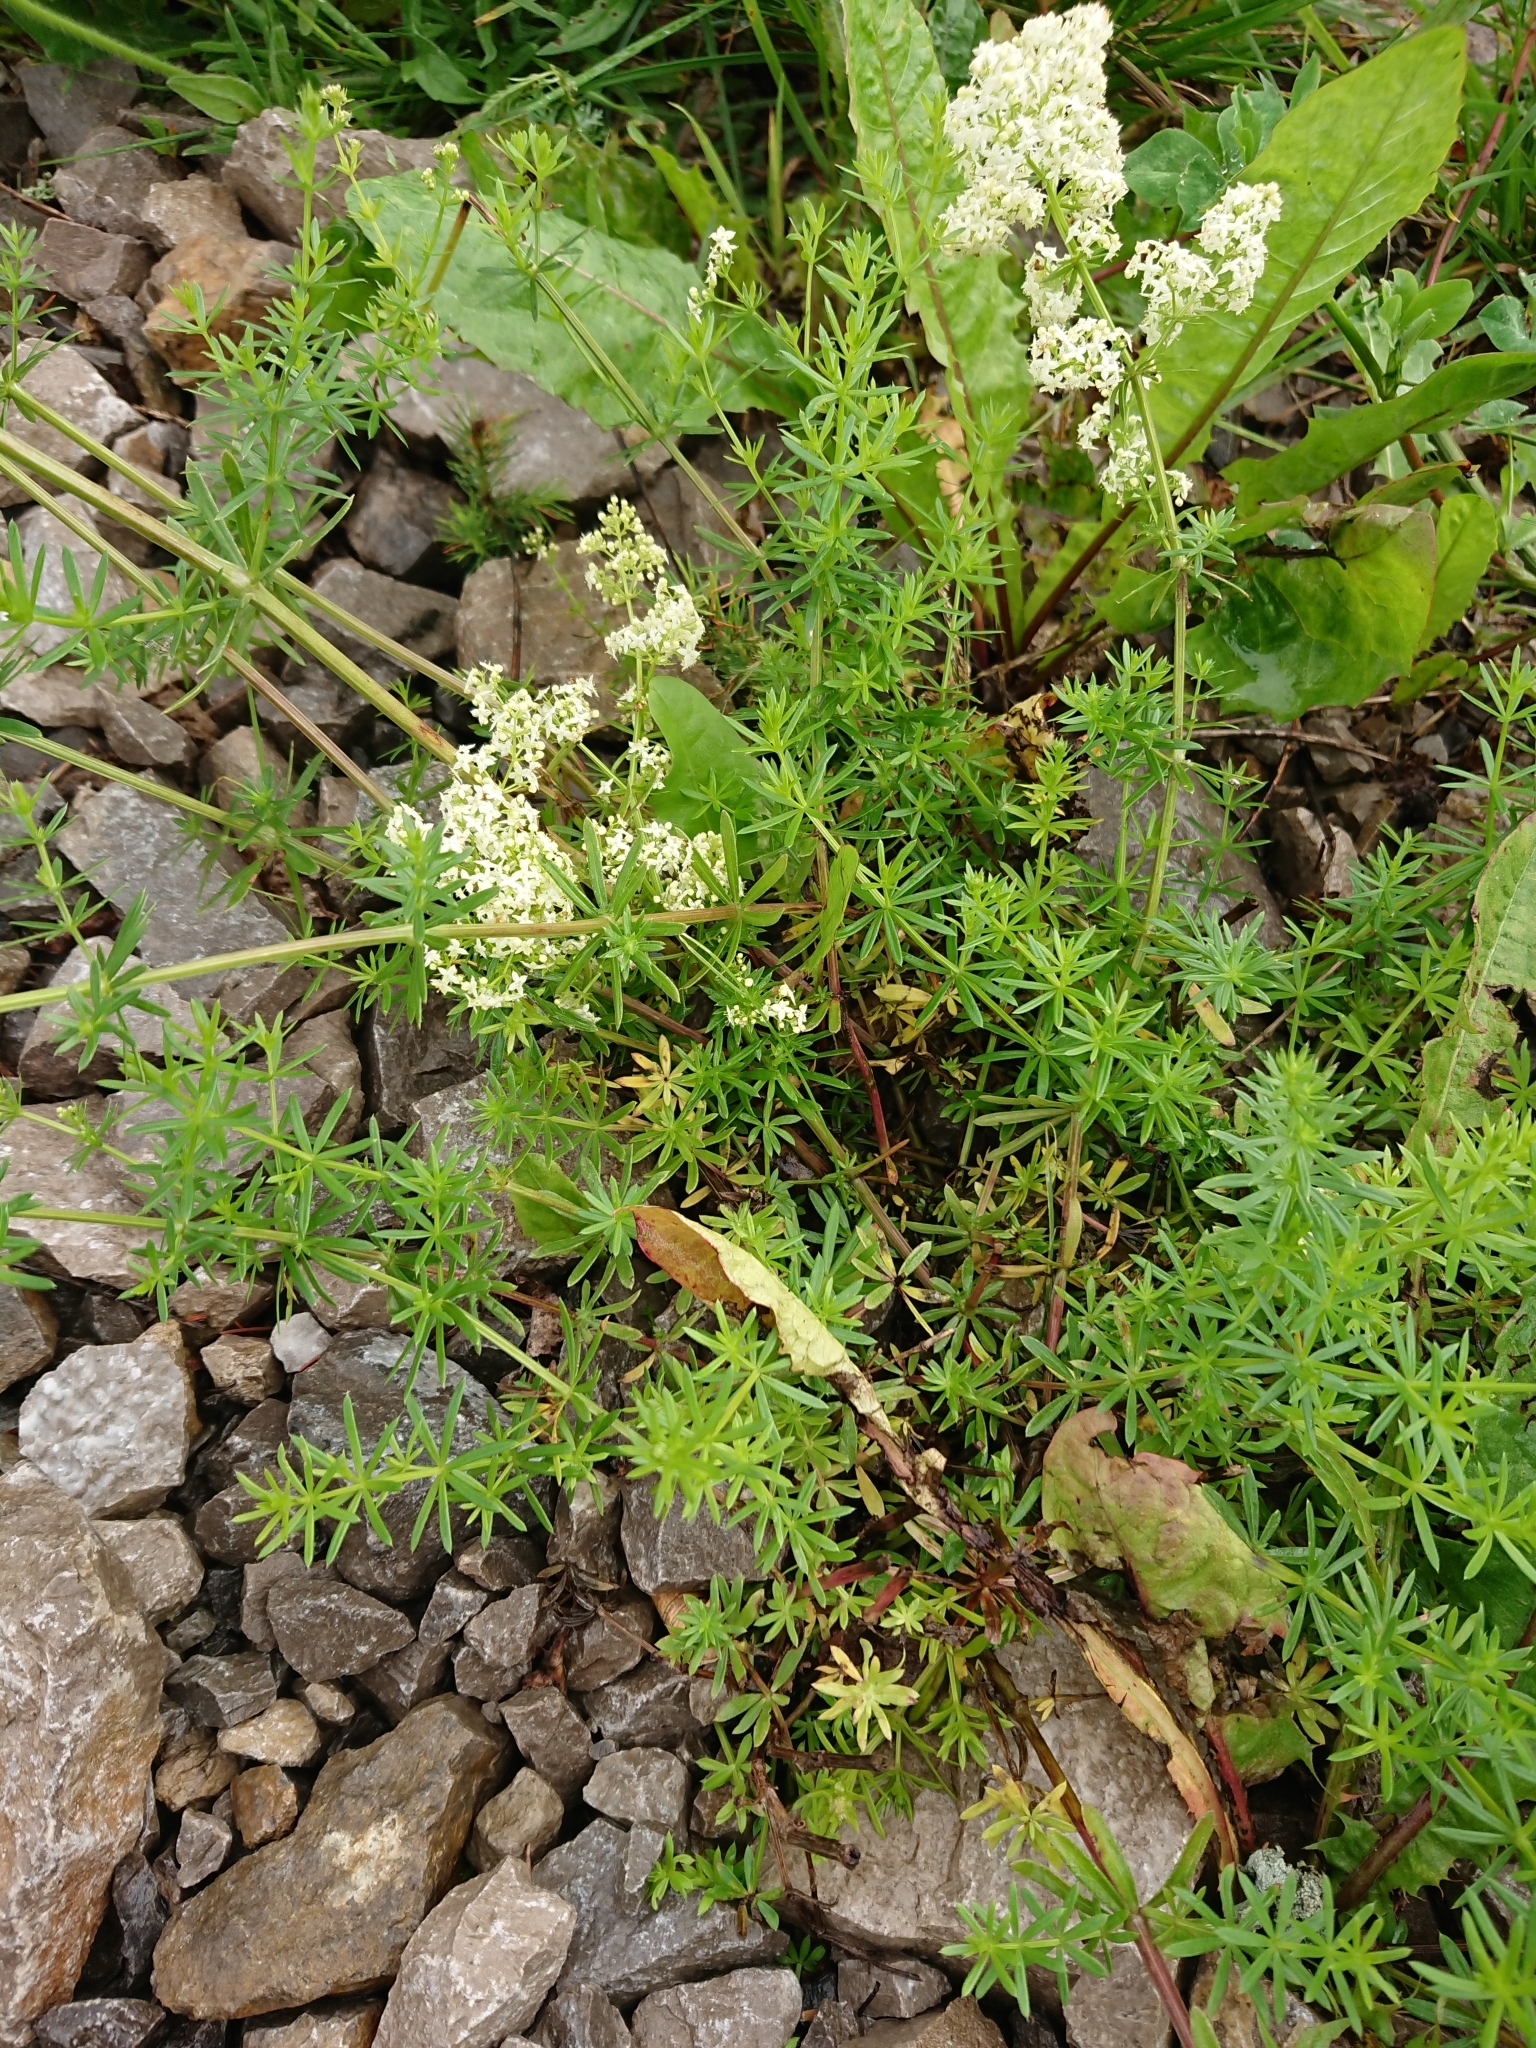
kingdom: Plantae
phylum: Tracheophyta
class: Magnoliopsida
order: Gentianales
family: Rubiaceae
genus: Galium
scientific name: Galium mollugo
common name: Hedge bedstraw
